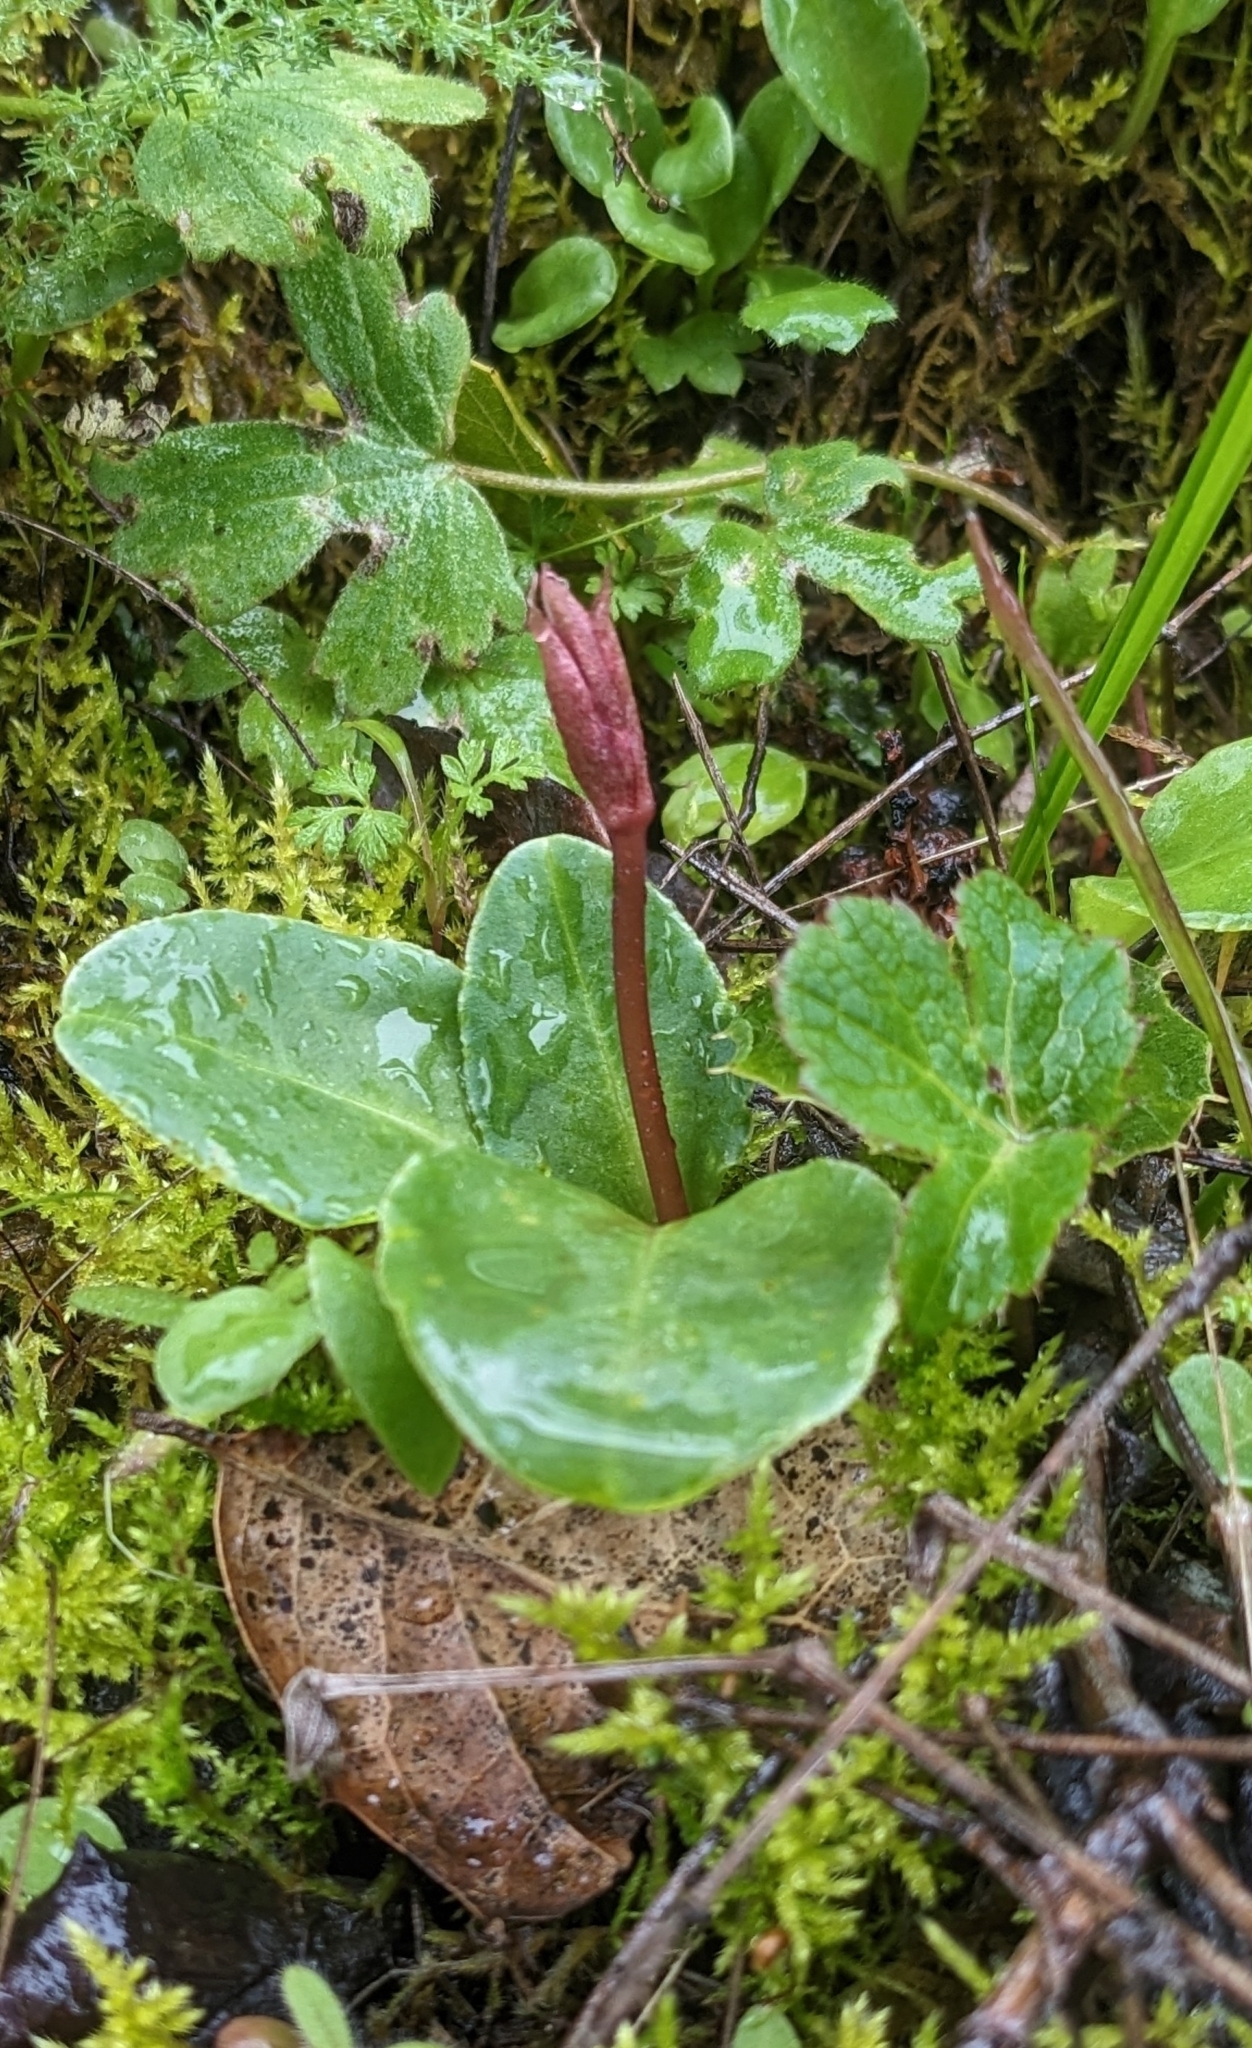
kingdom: Plantae
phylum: Tracheophyta
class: Magnoliopsida
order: Ericales
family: Primulaceae
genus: Dodecatheon
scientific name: Dodecatheon hendersonii
